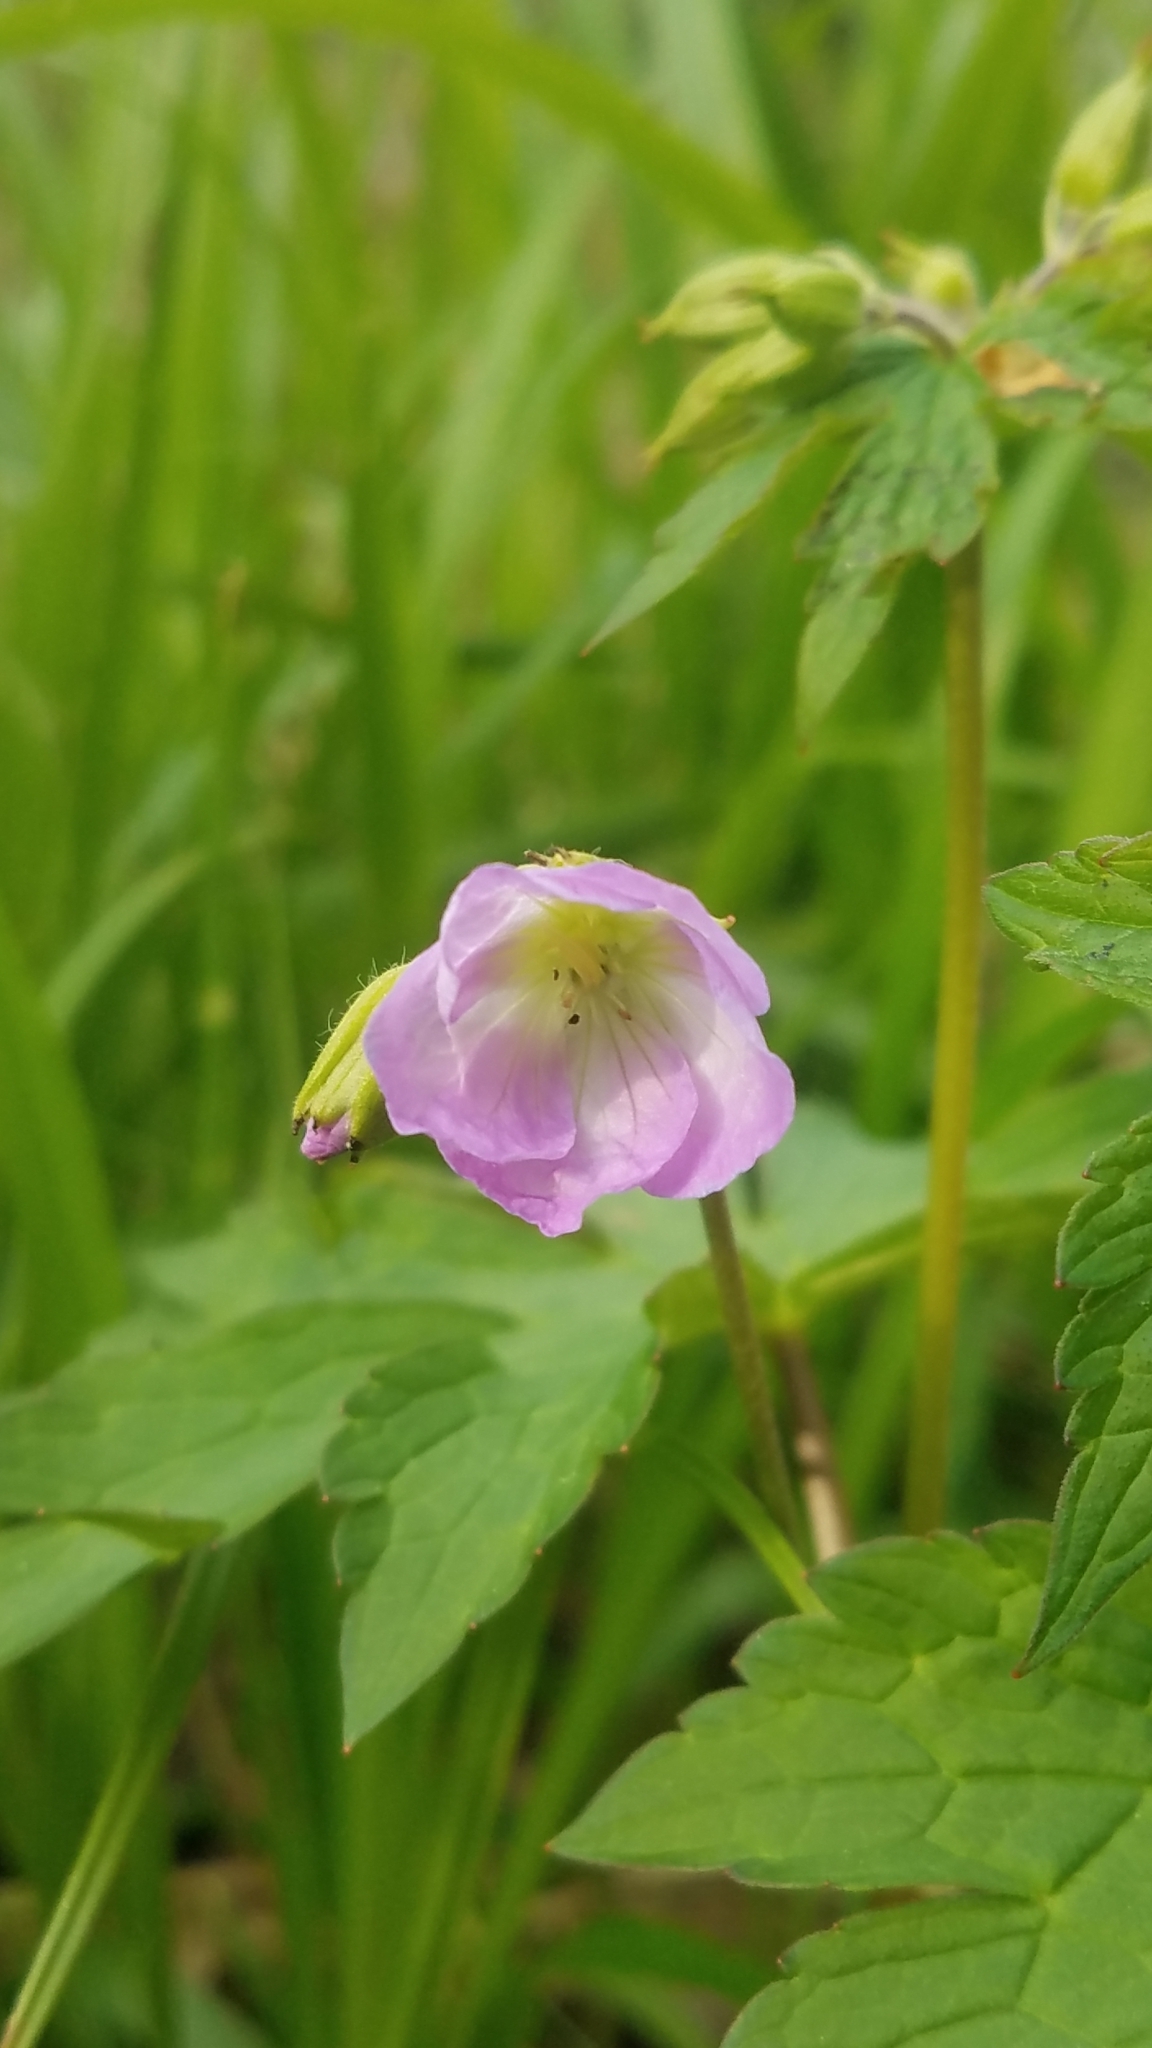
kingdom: Plantae
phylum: Tracheophyta
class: Magnoliopsida
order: Geraniales
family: Geraniaceae
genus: Geranium
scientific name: Geranium maculatum
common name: Spotted geranium
